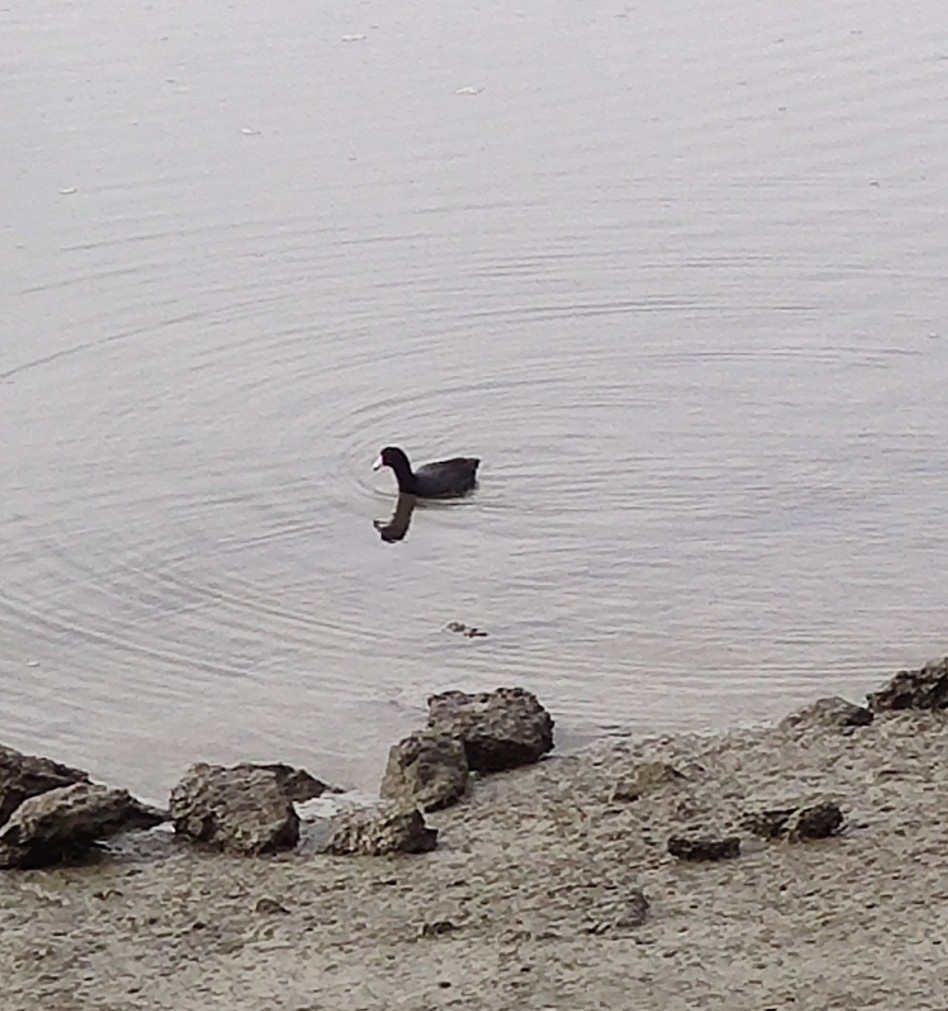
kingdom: Animalia
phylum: Chordata
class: Aves
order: Gruiformes
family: Rallidae
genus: Fulica
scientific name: Fulica americana
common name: American coot
